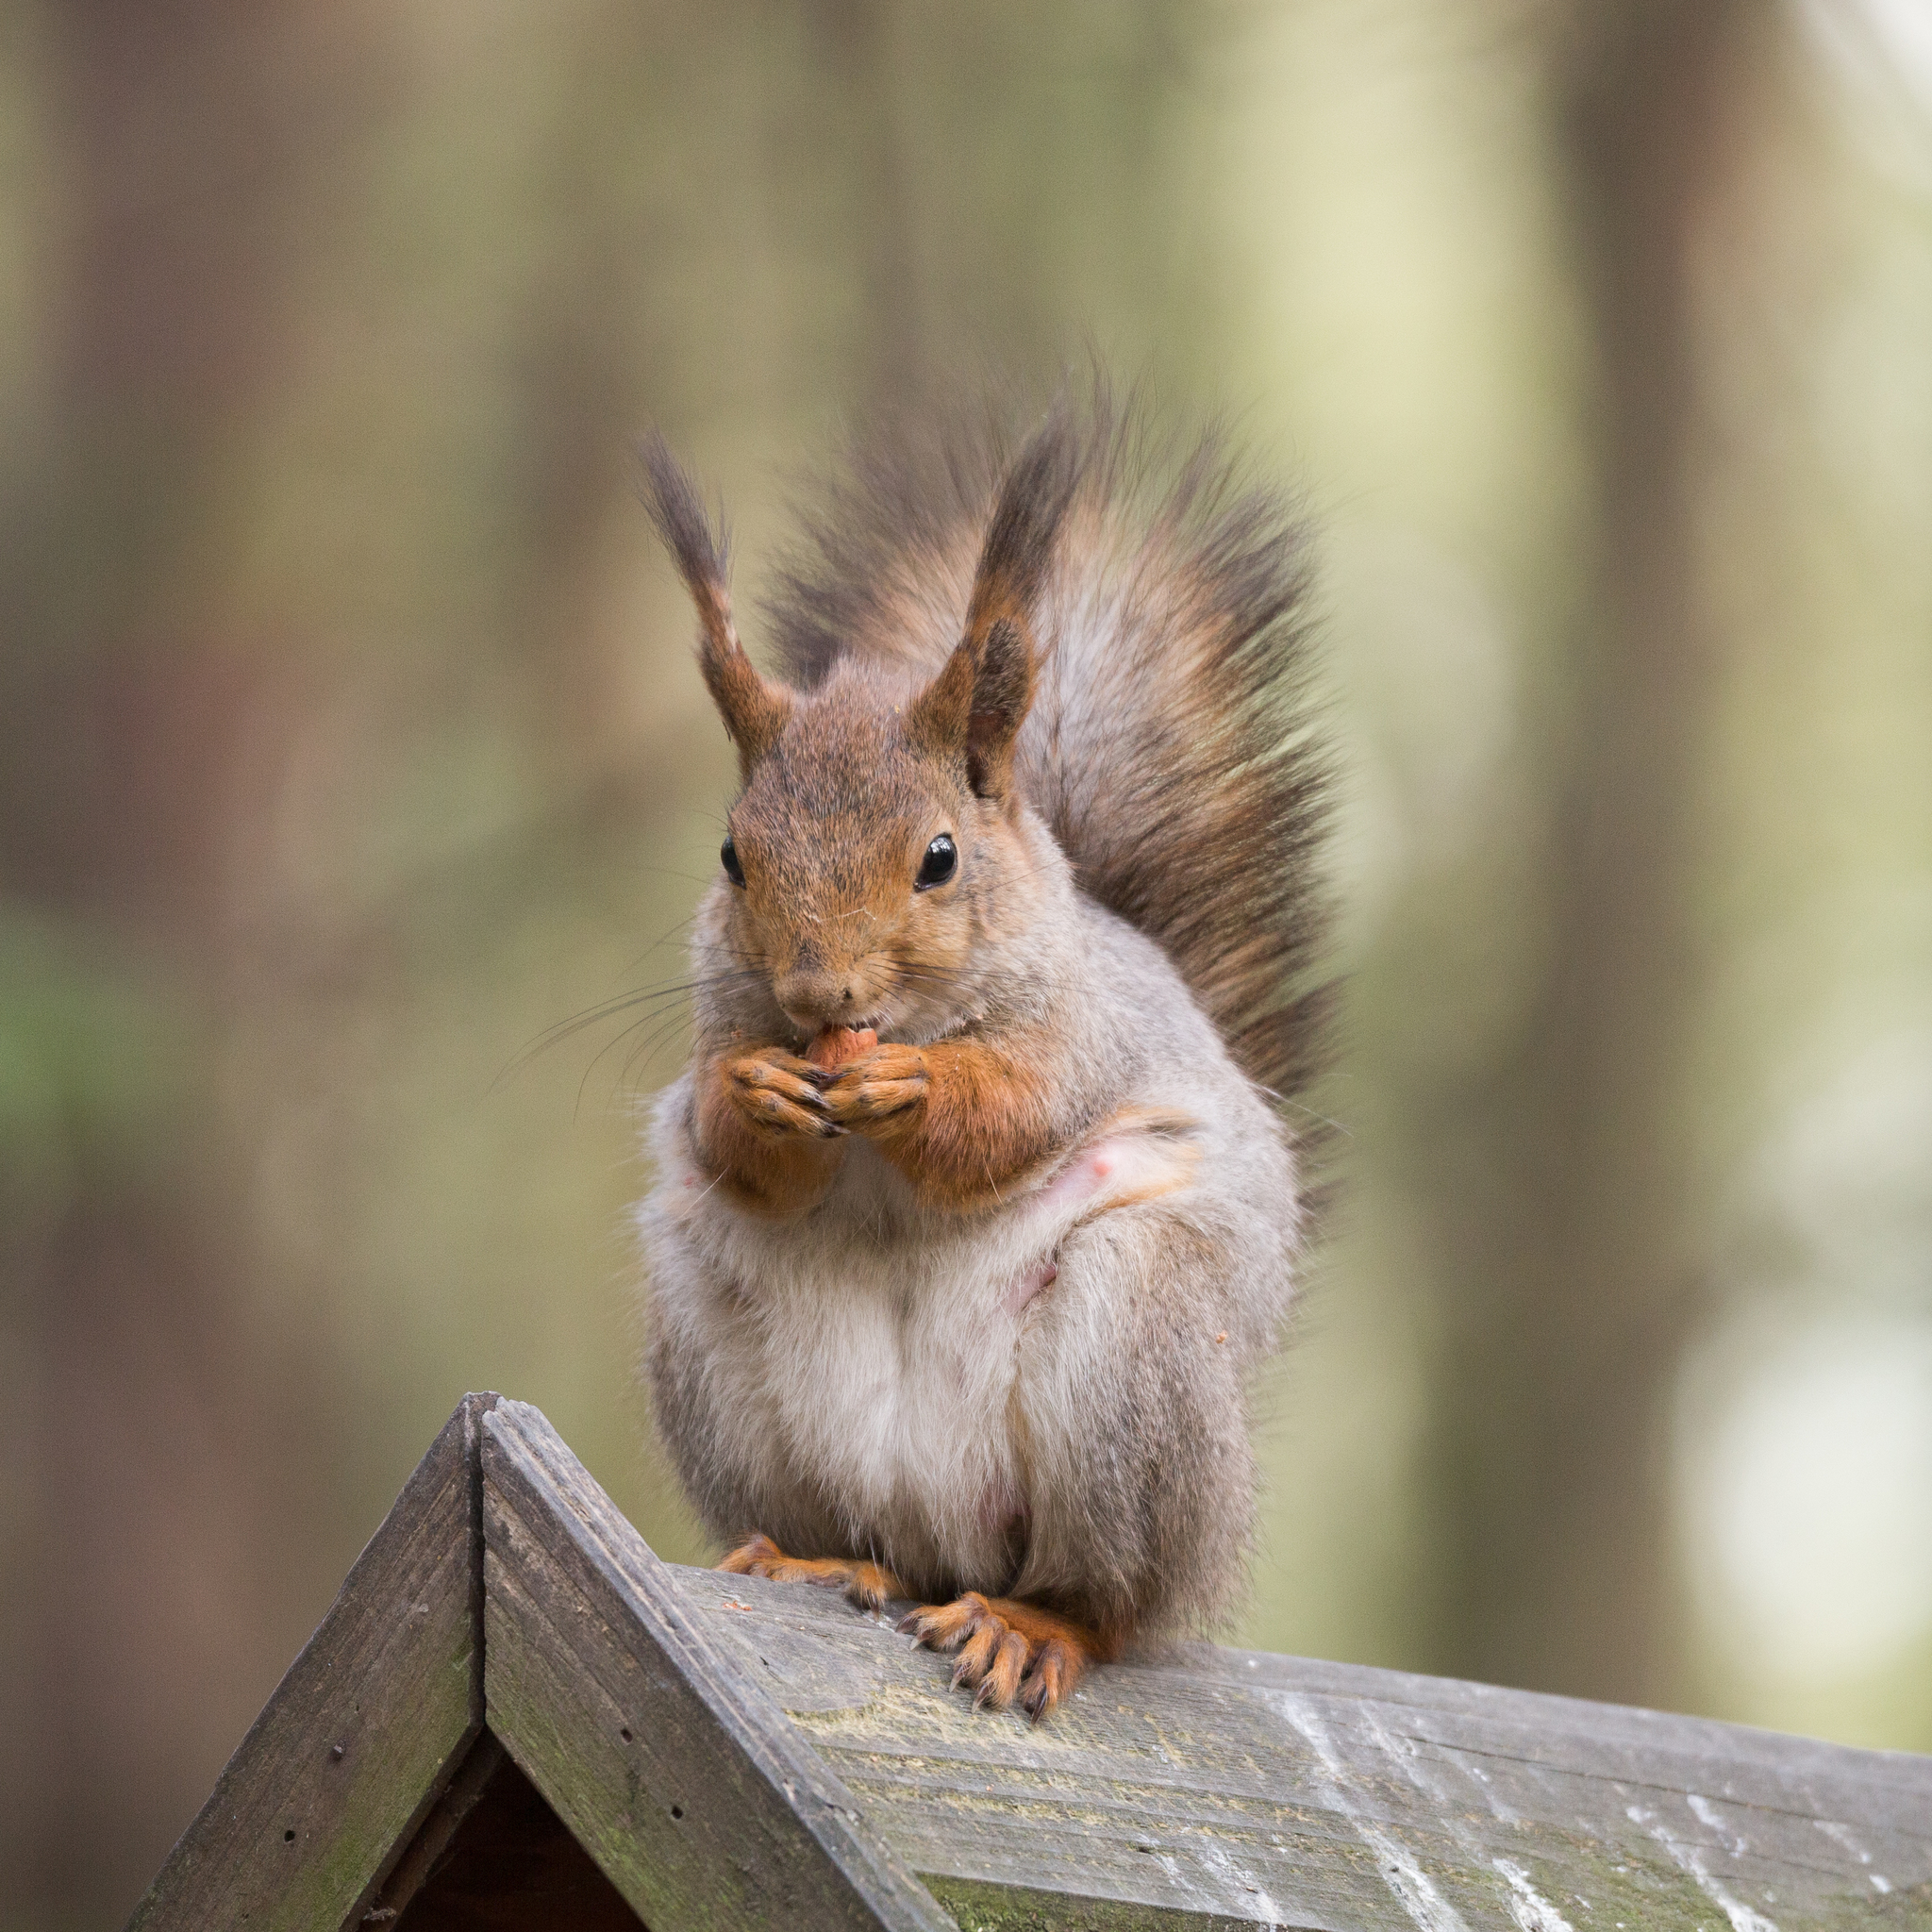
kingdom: Animalia
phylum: Chordata
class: Mammalia
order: Rodentia
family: Sciuridae
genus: Sciurus
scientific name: Sciurus vulgaris
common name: Eurasian red squirrel
